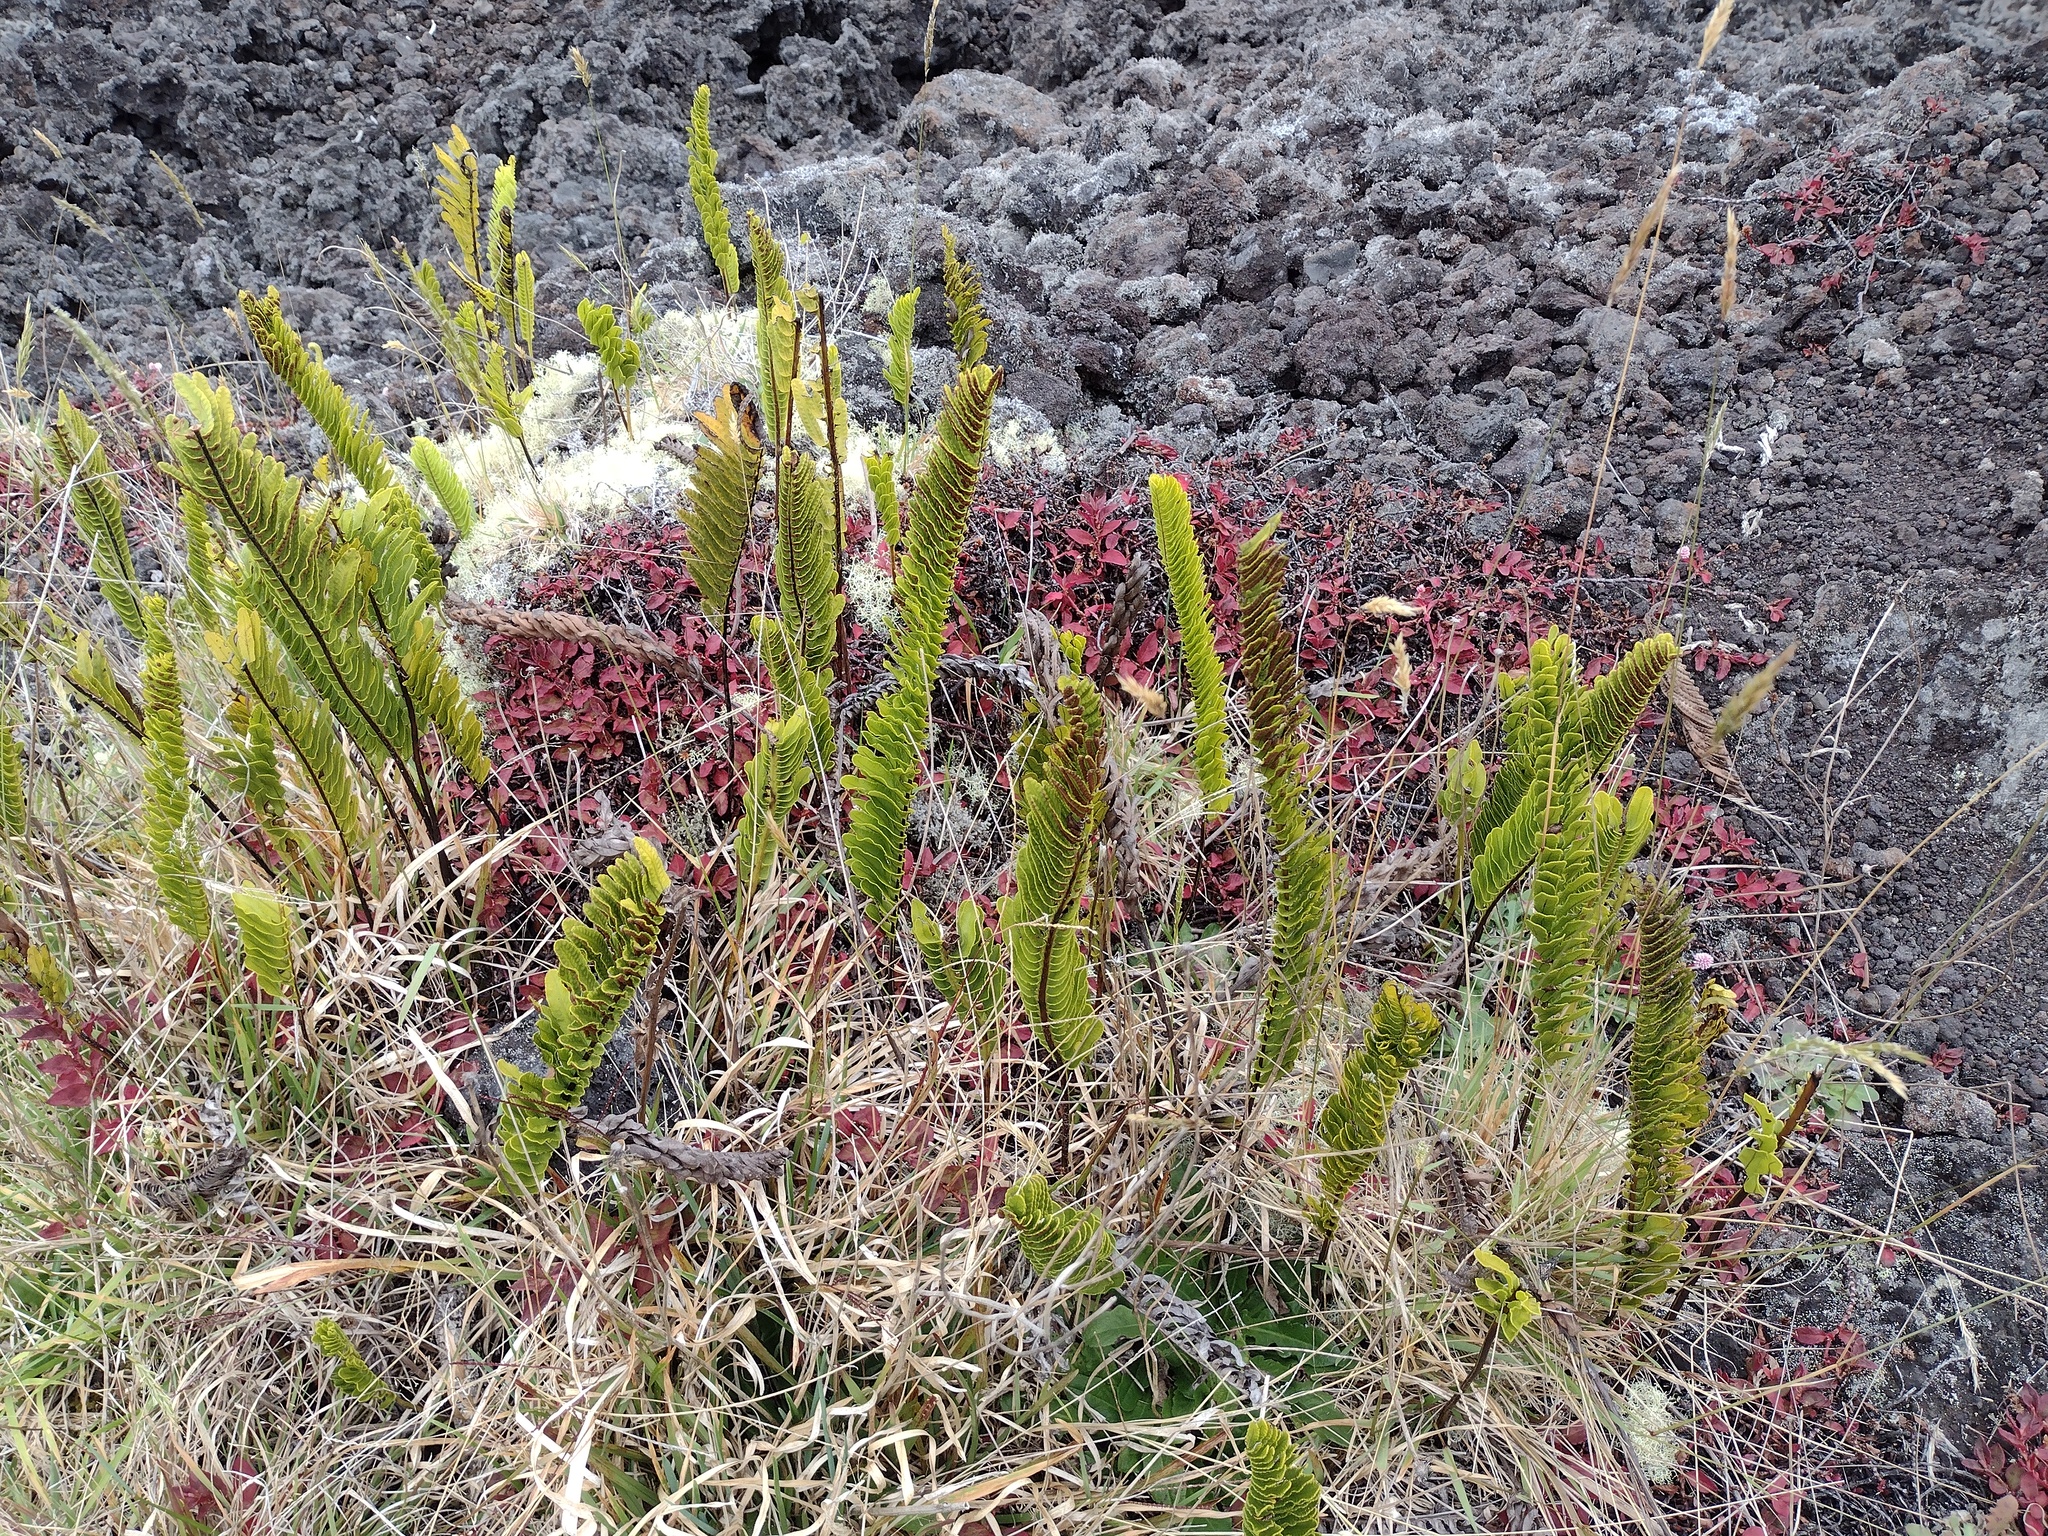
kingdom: Plantae
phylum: Tracheophyta
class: Polypodiopsida
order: Polypodiales
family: Polypodiaceae
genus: Polypodium
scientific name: Polypodium pellucidum
